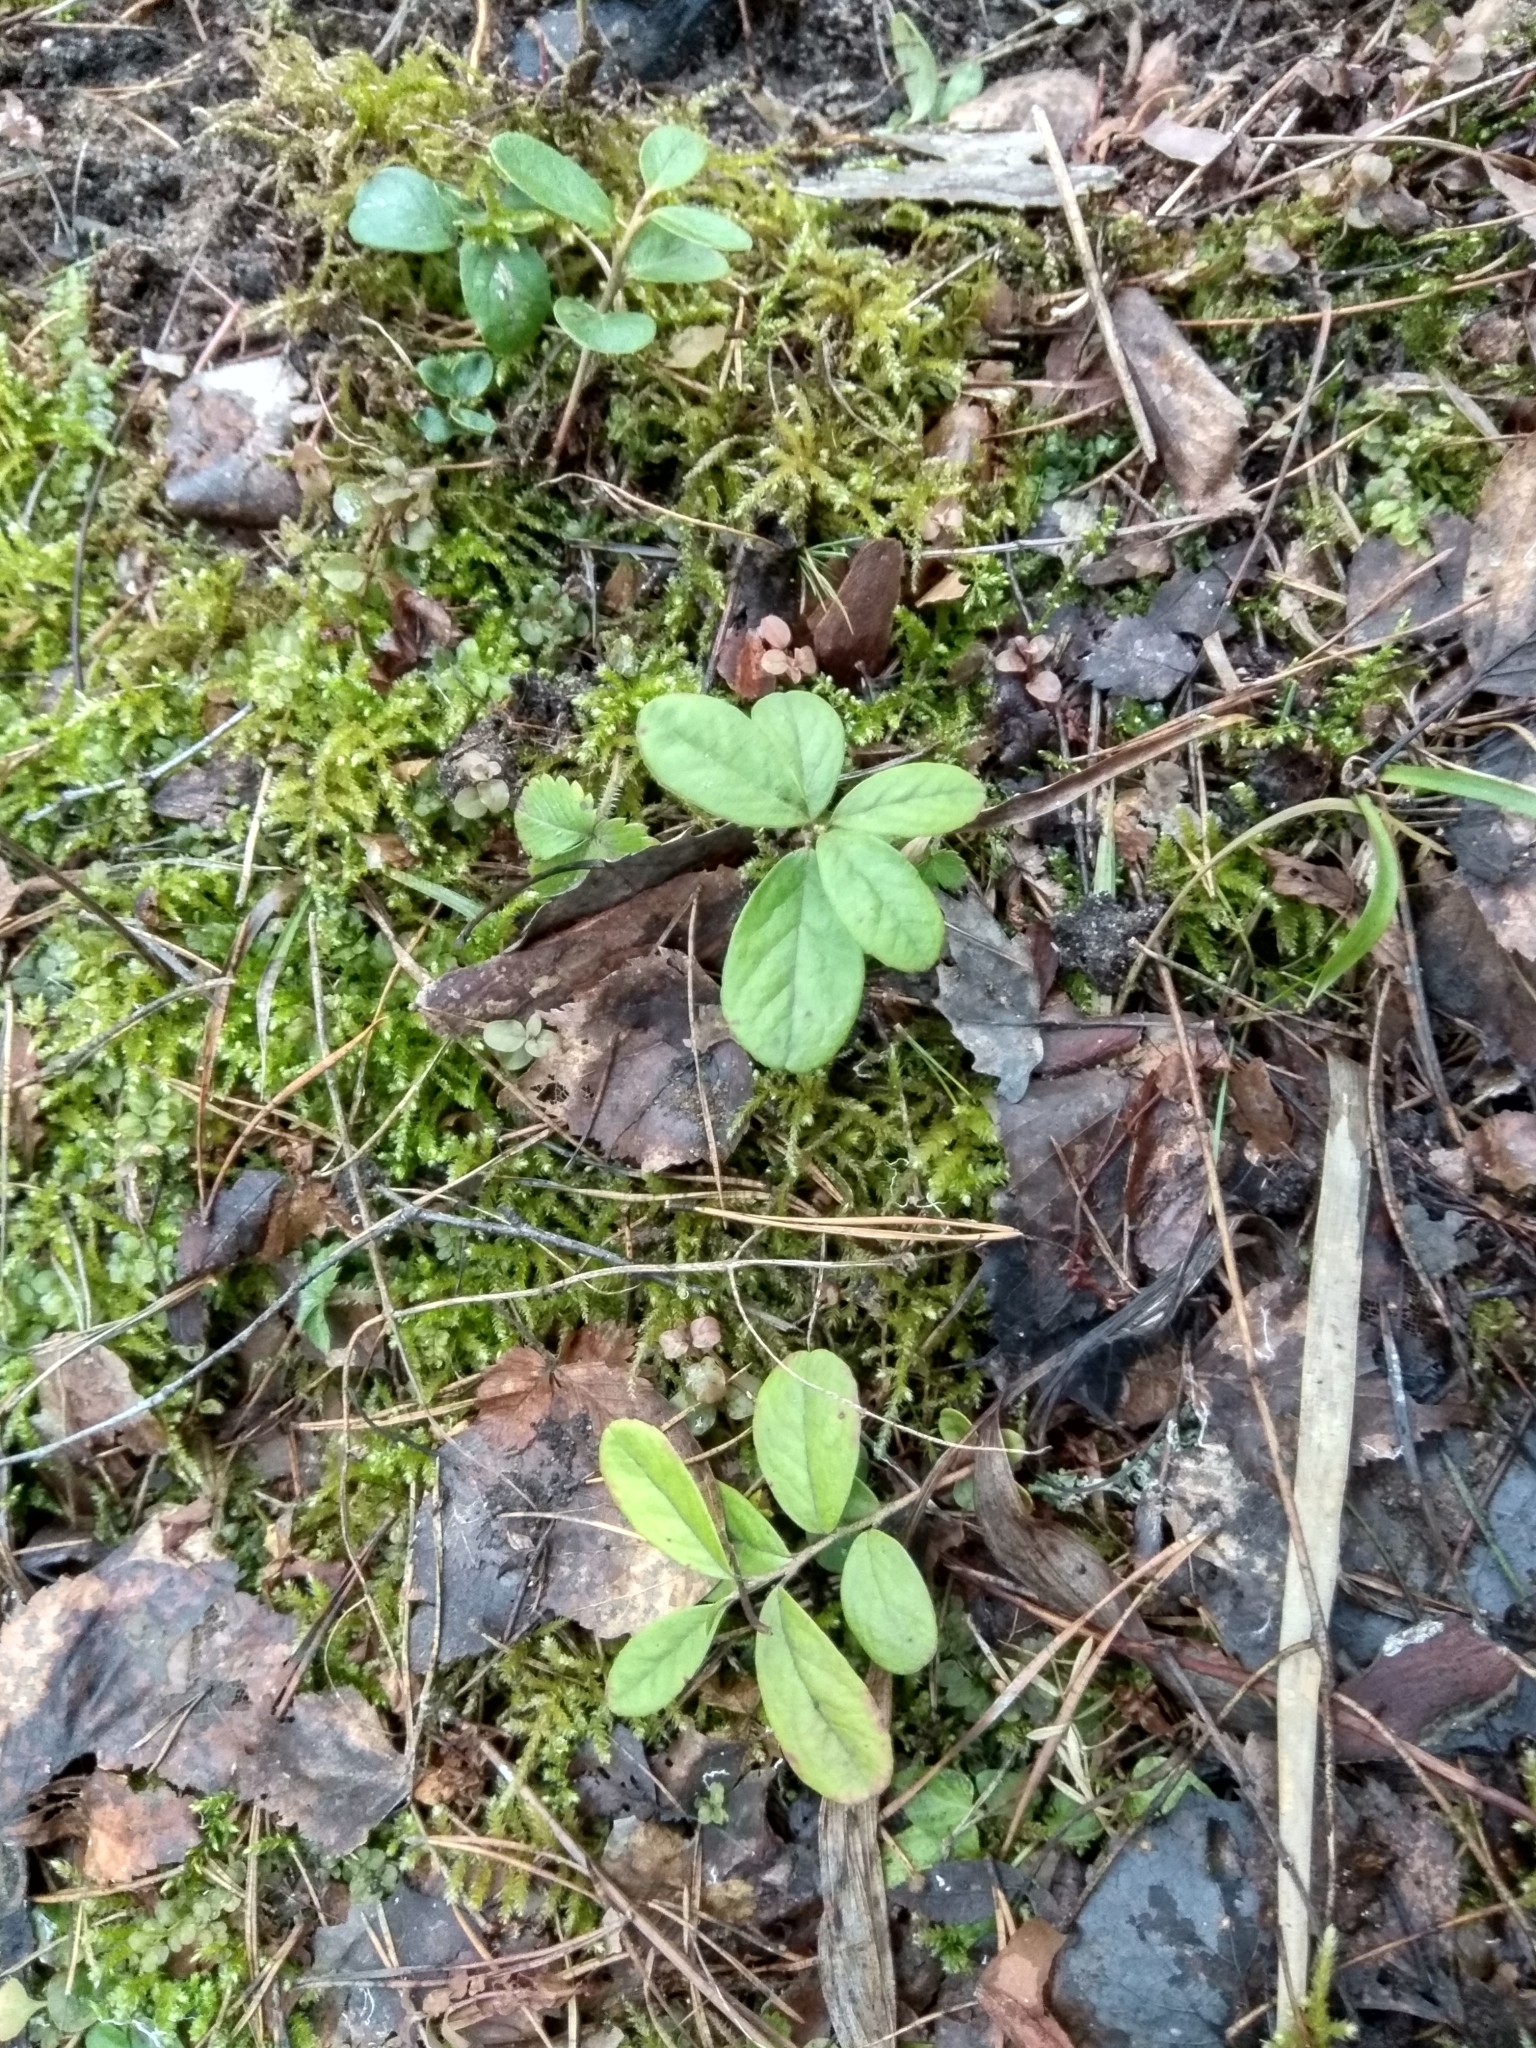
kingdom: Plantae
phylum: Tracheophyta
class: Magnoliopsida
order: Ericales
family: Ericaceae
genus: Vaccinium
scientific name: Vaccinium vitis-idaea
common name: Cowberry
